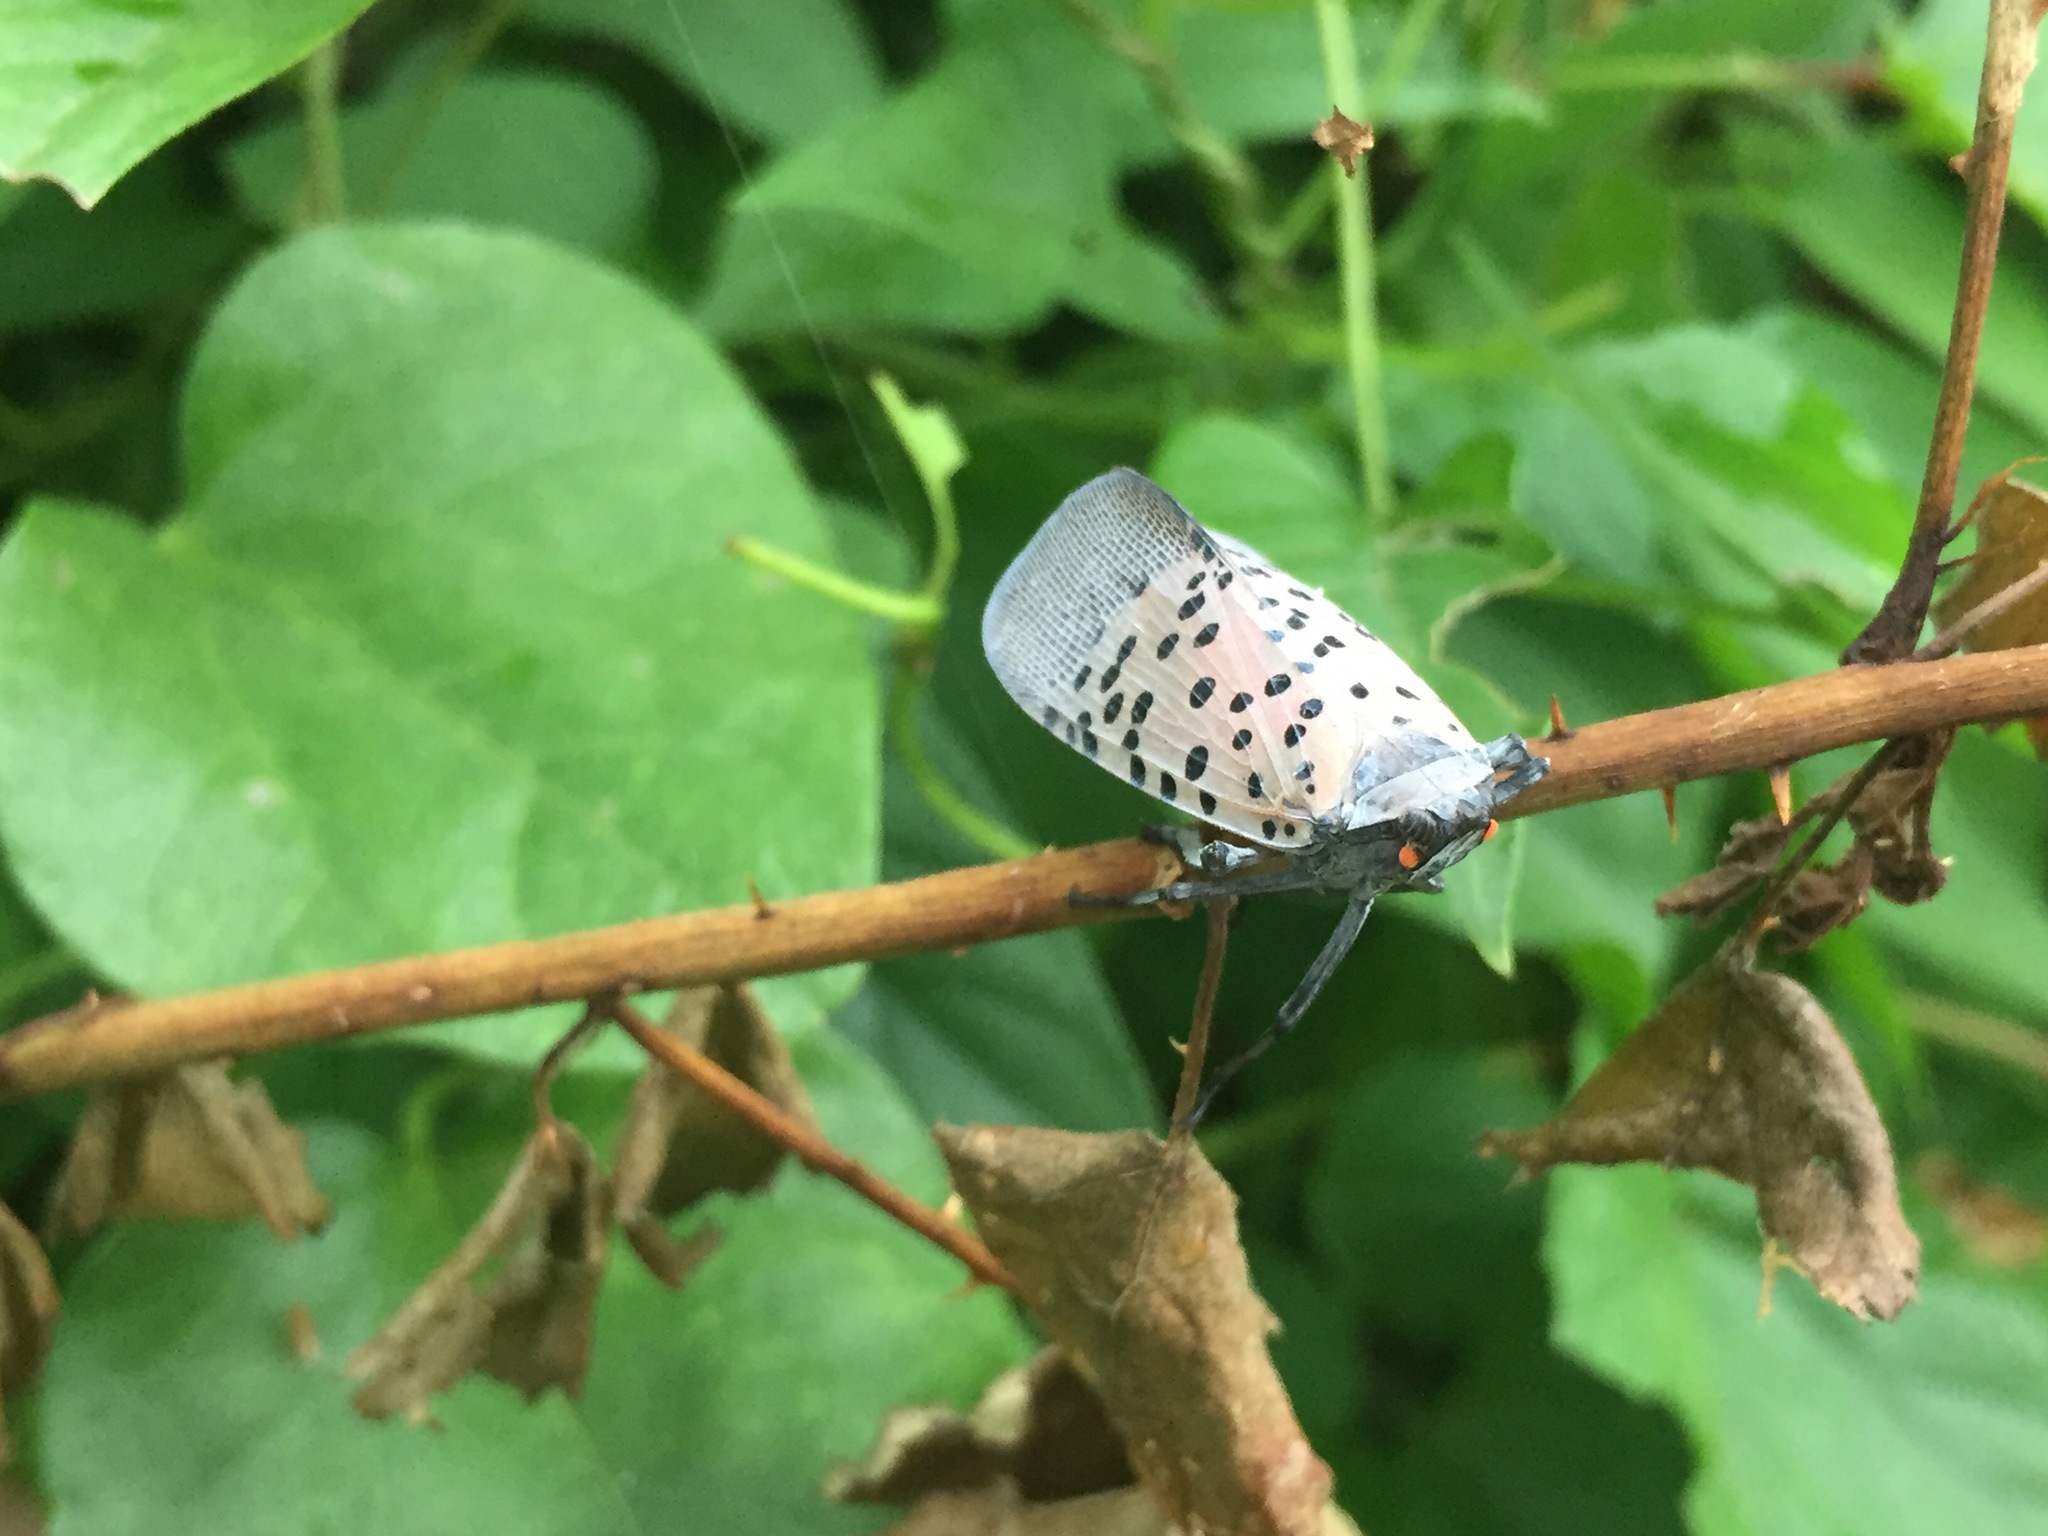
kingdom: Animalia
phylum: Arthropoda
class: Insecta
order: Hemiptera
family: Fulgoridae
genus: Lycorma
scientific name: Lycorma delicatula
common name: Spotted lanternfly
